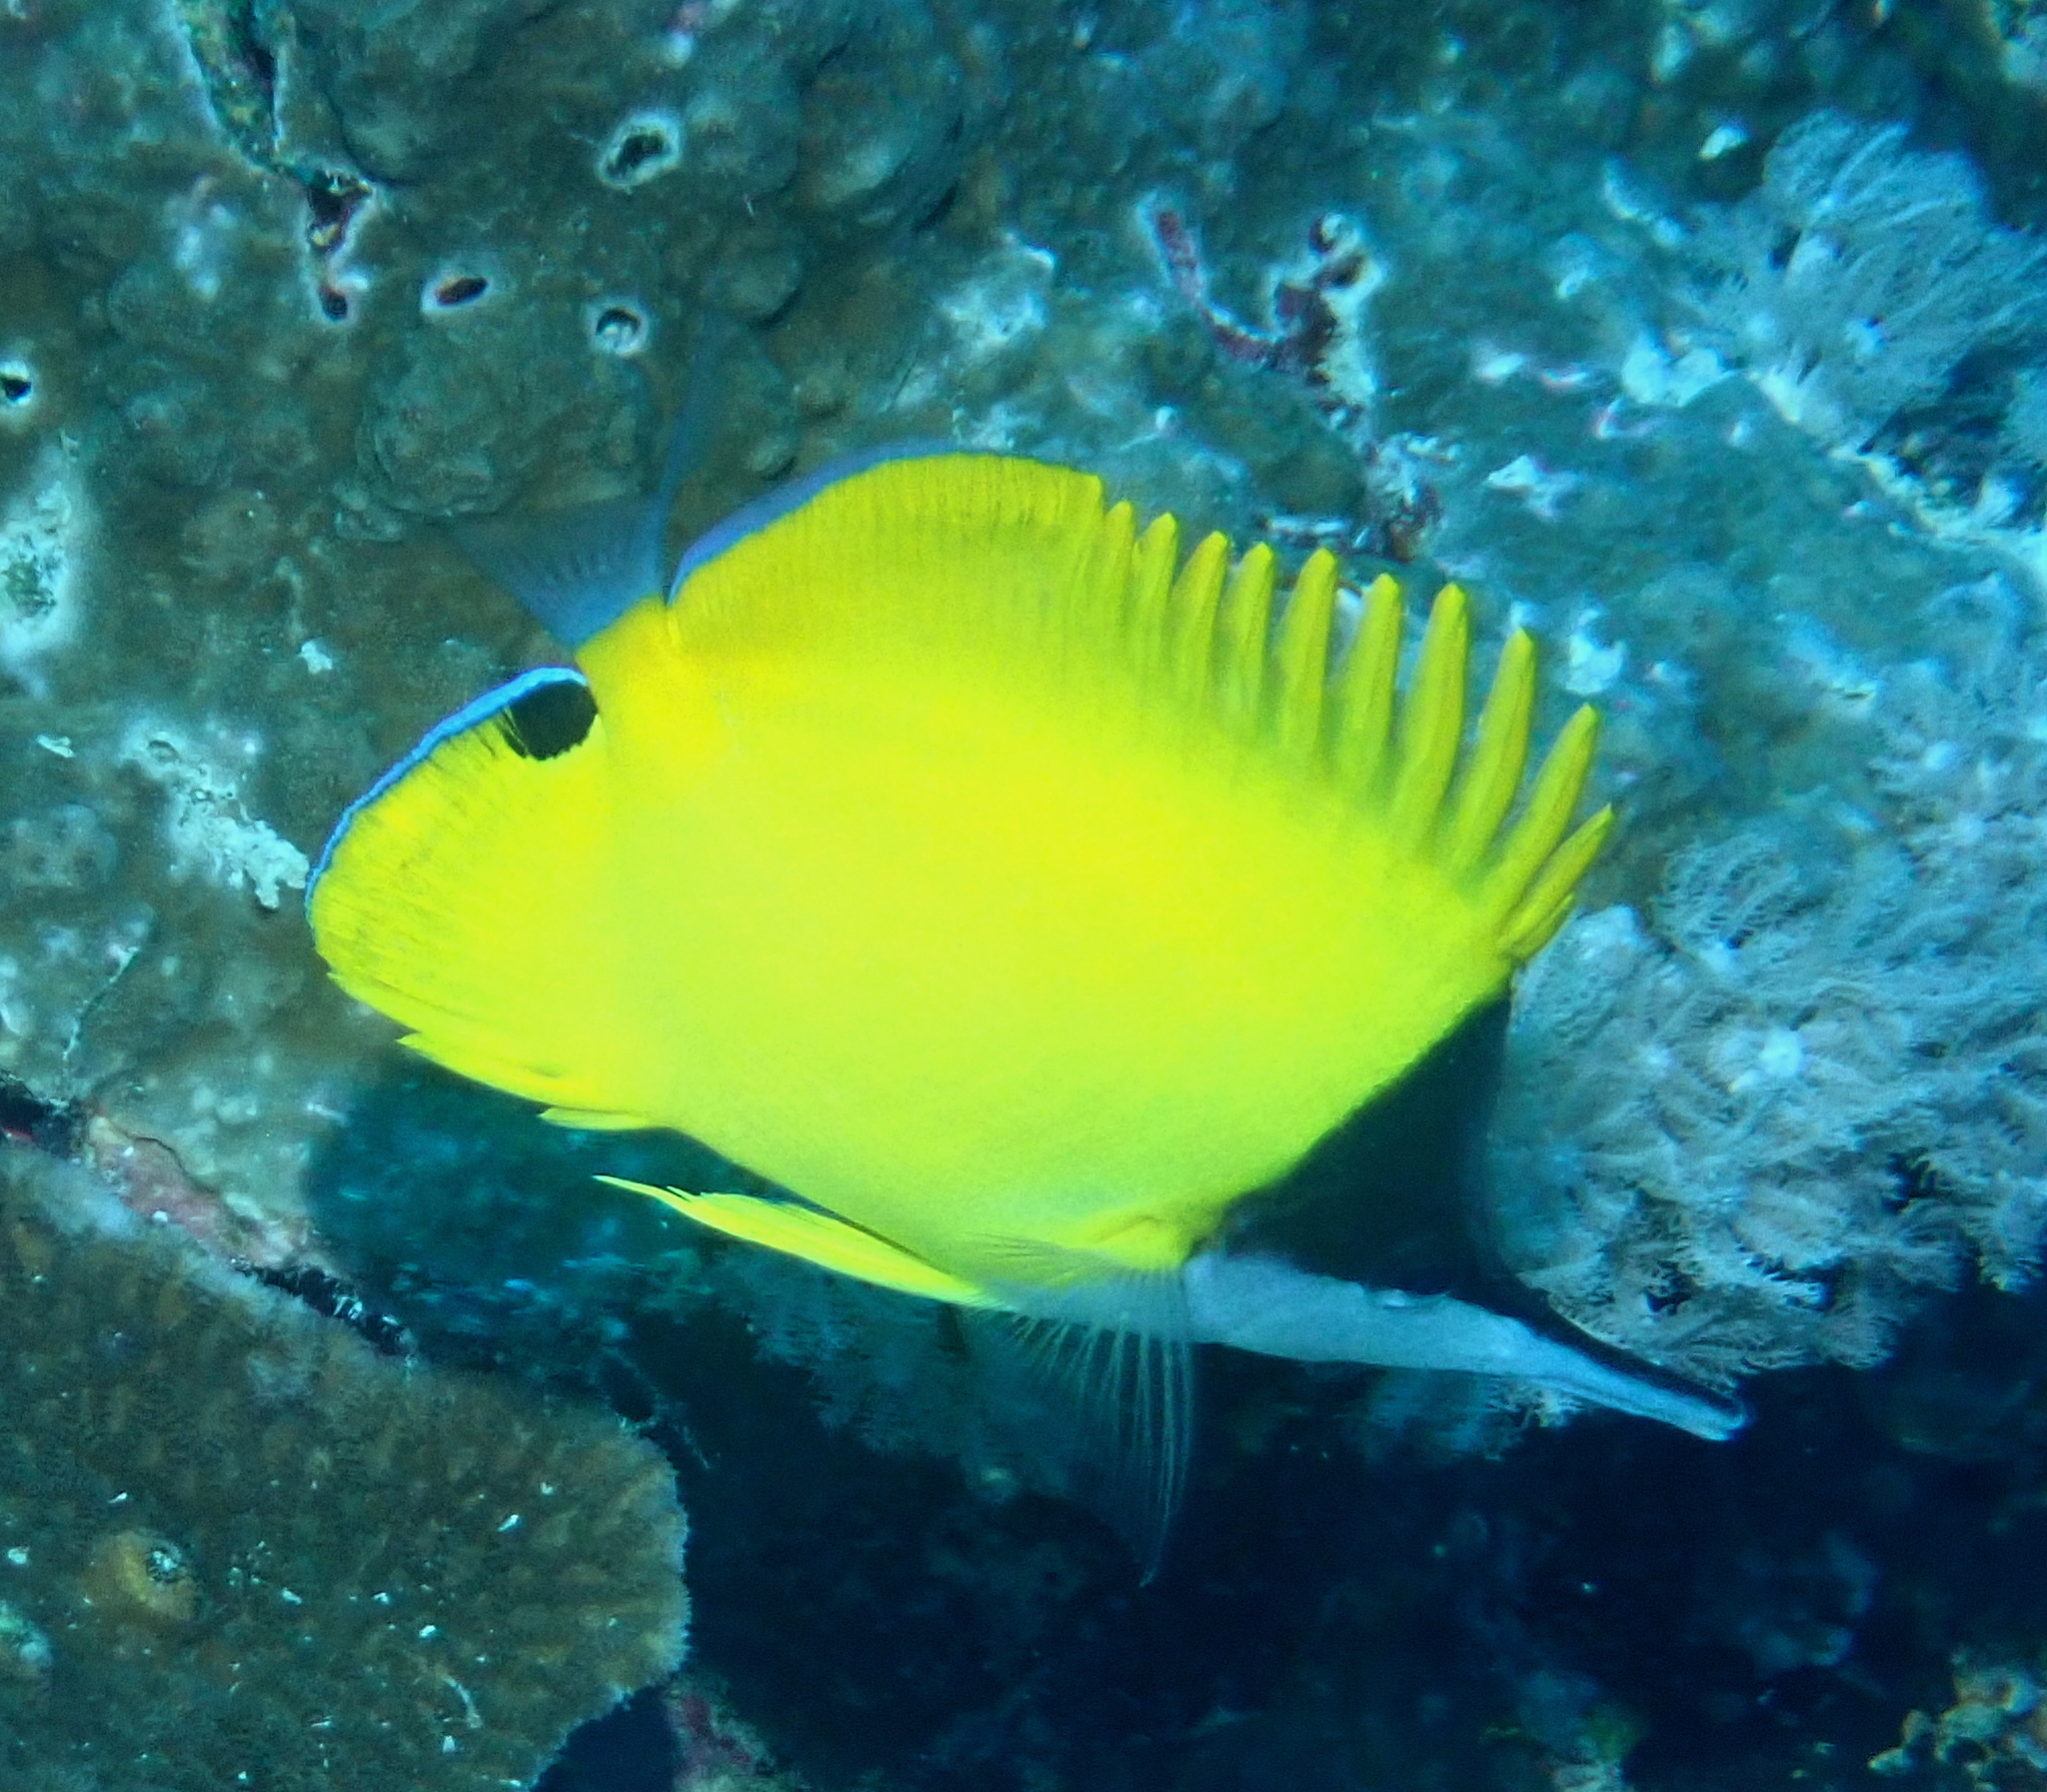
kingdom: Animalia
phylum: Chordata
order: Perciformes
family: Chaetodontidae
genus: Forcipiger
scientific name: Forcipiger flavissimus
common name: Forcepsfish
